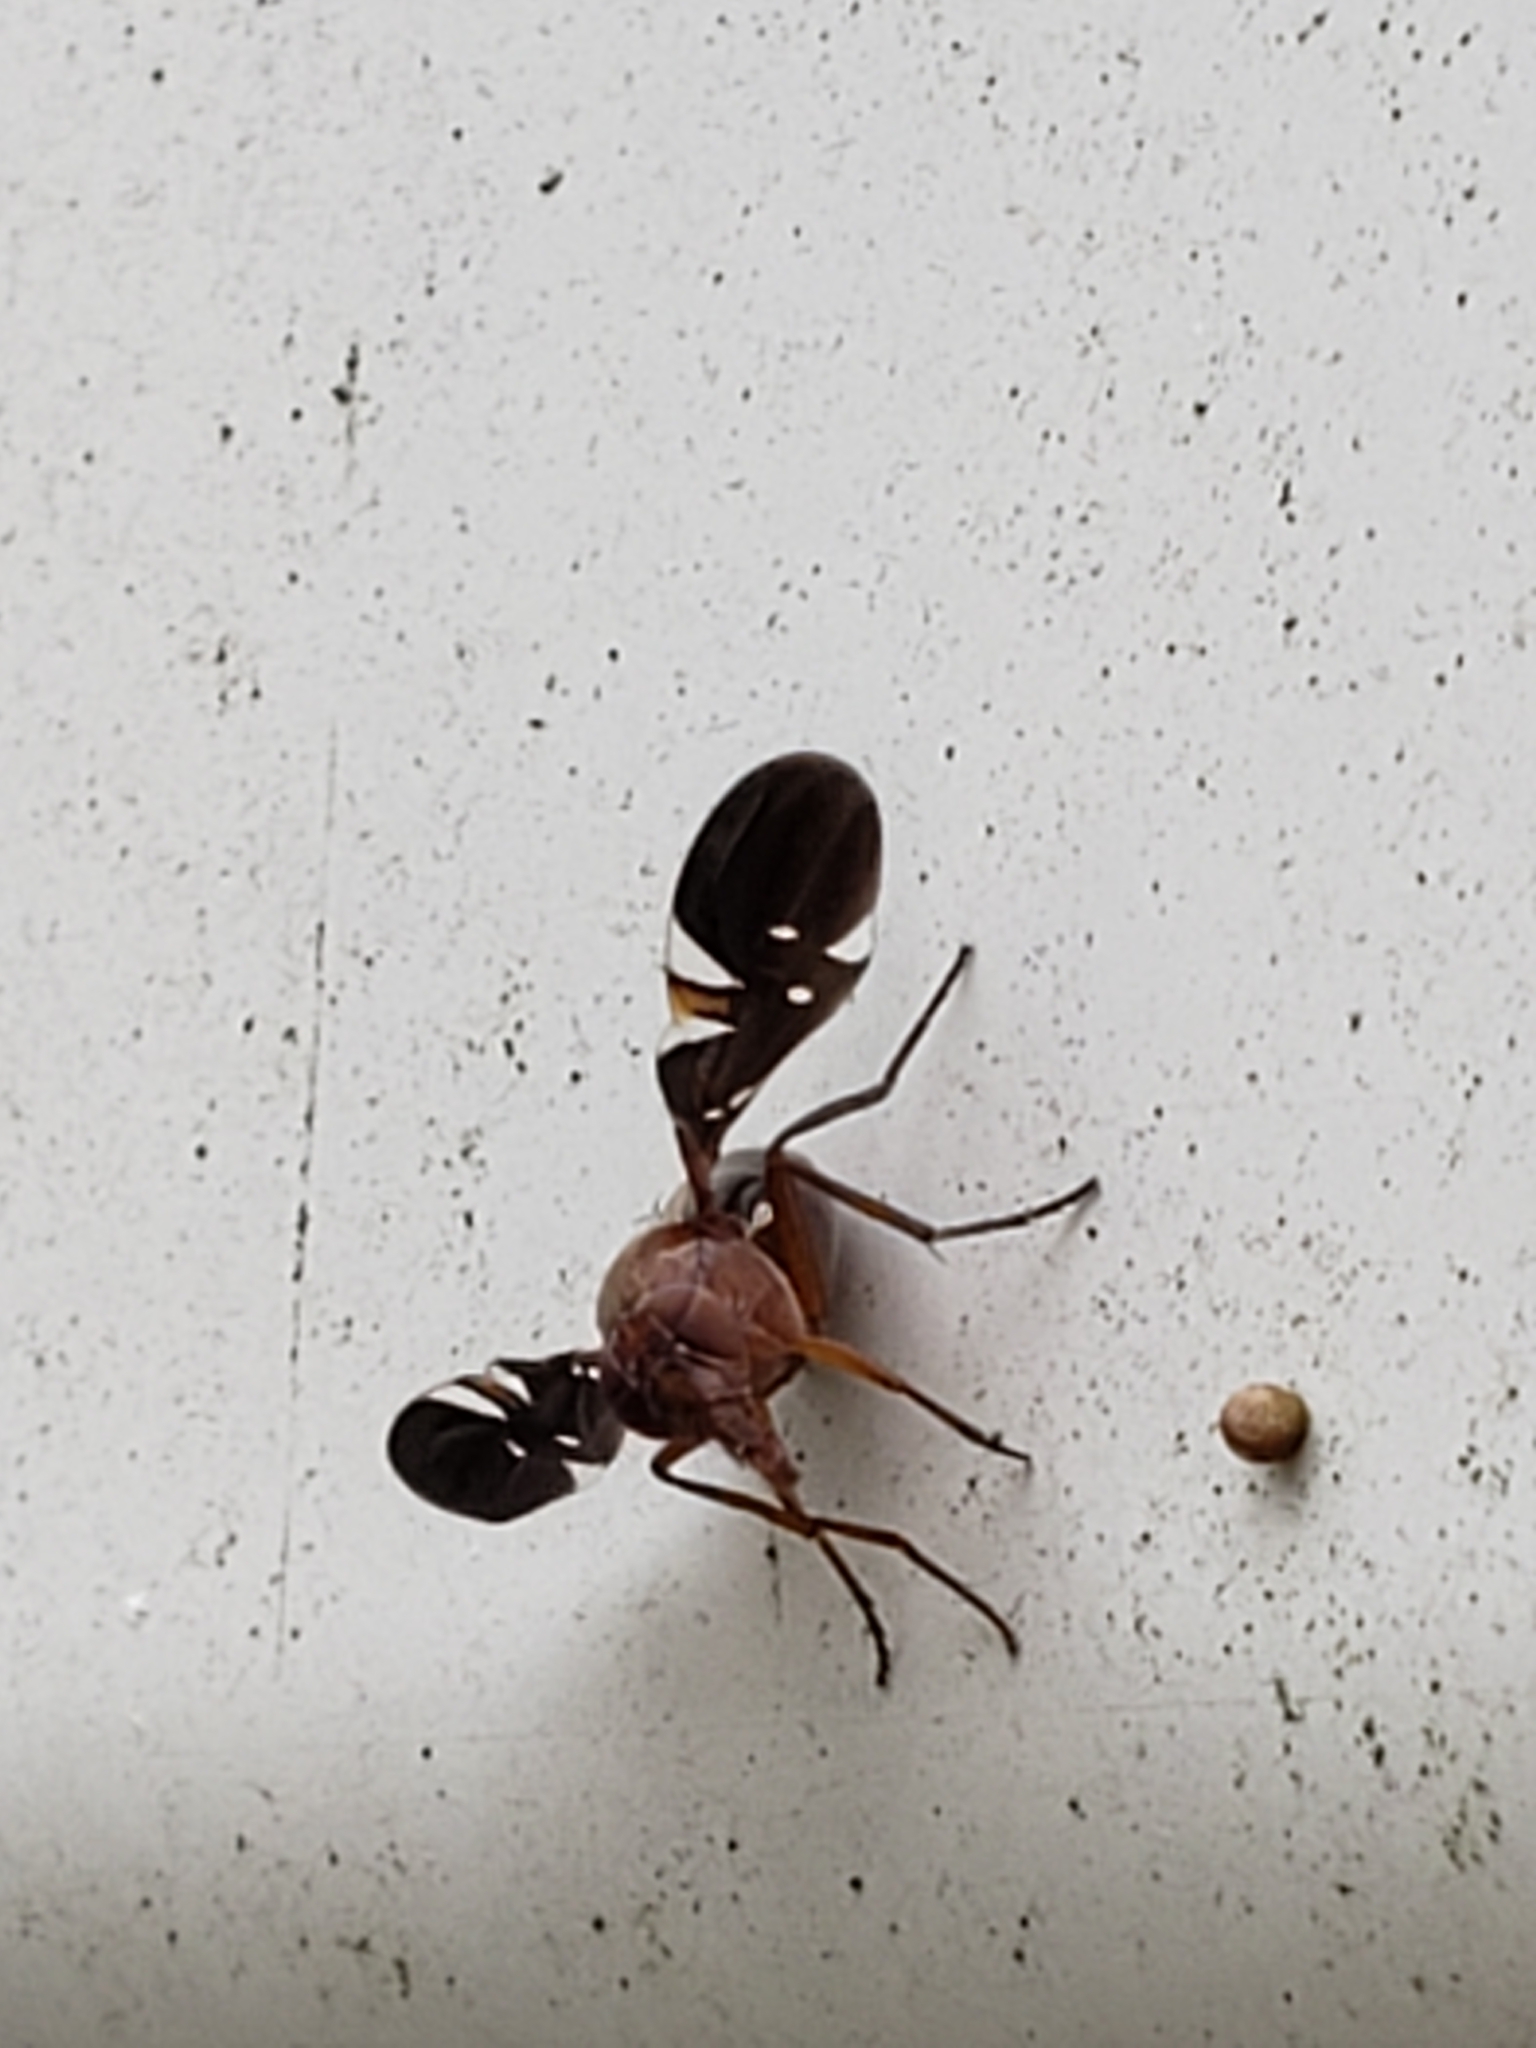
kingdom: Animalia
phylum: Arthropoda
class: Insecta
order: Diptera
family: Ulidiidae
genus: Delphinia
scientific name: Delphinia picta
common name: Common picture-winged fly
